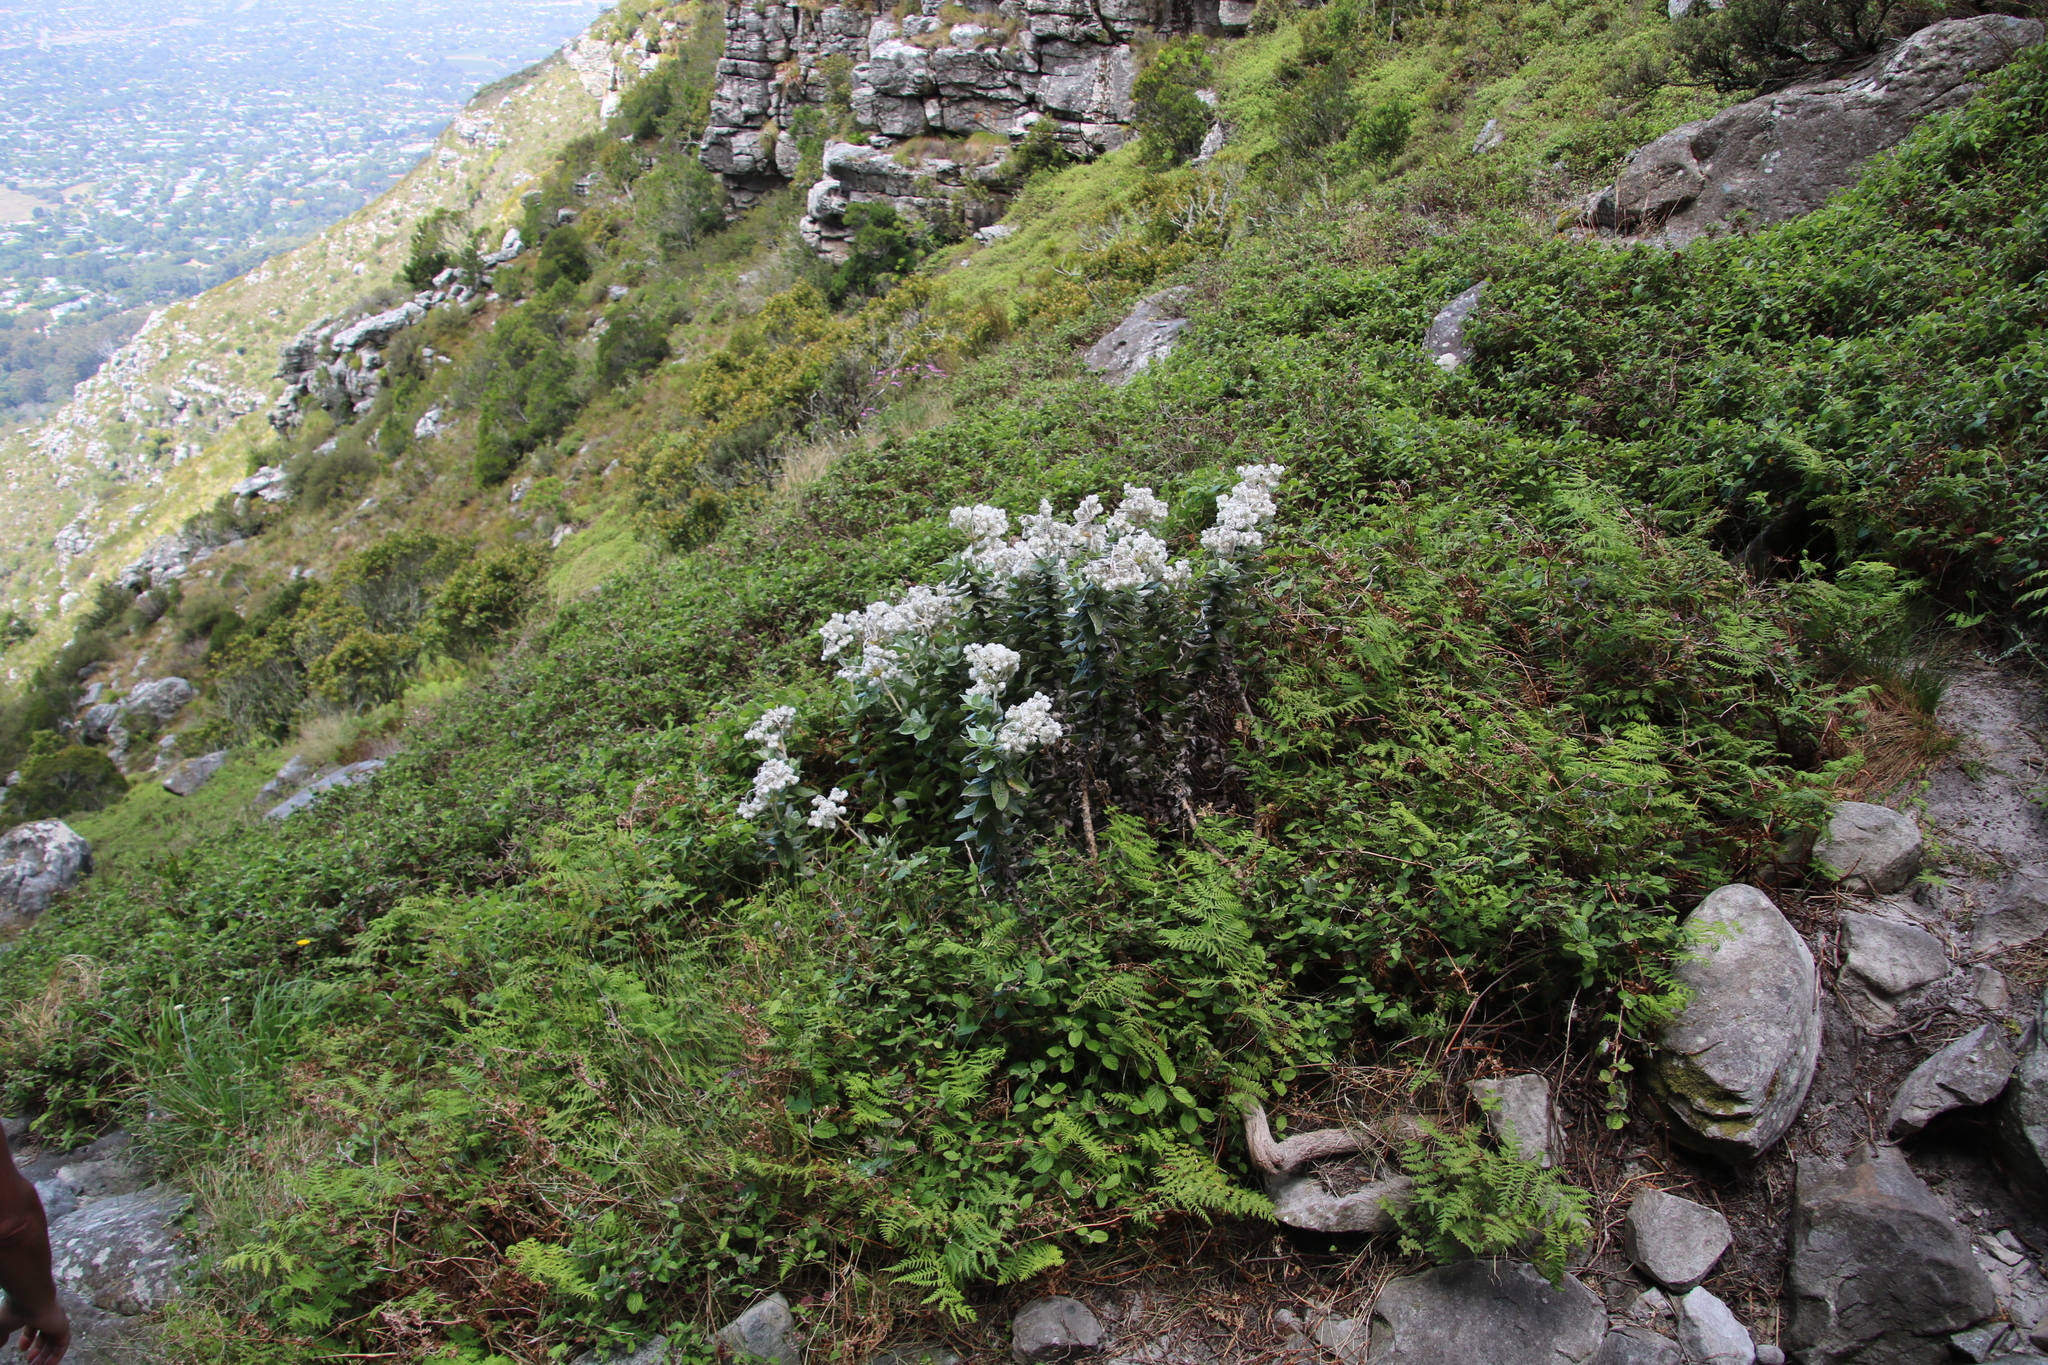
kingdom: Plantae
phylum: Tracheophyta
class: Magnoliopsida
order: Asterales
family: Asteraceae
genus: Helichrysum
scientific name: Helichrysum fruticans
